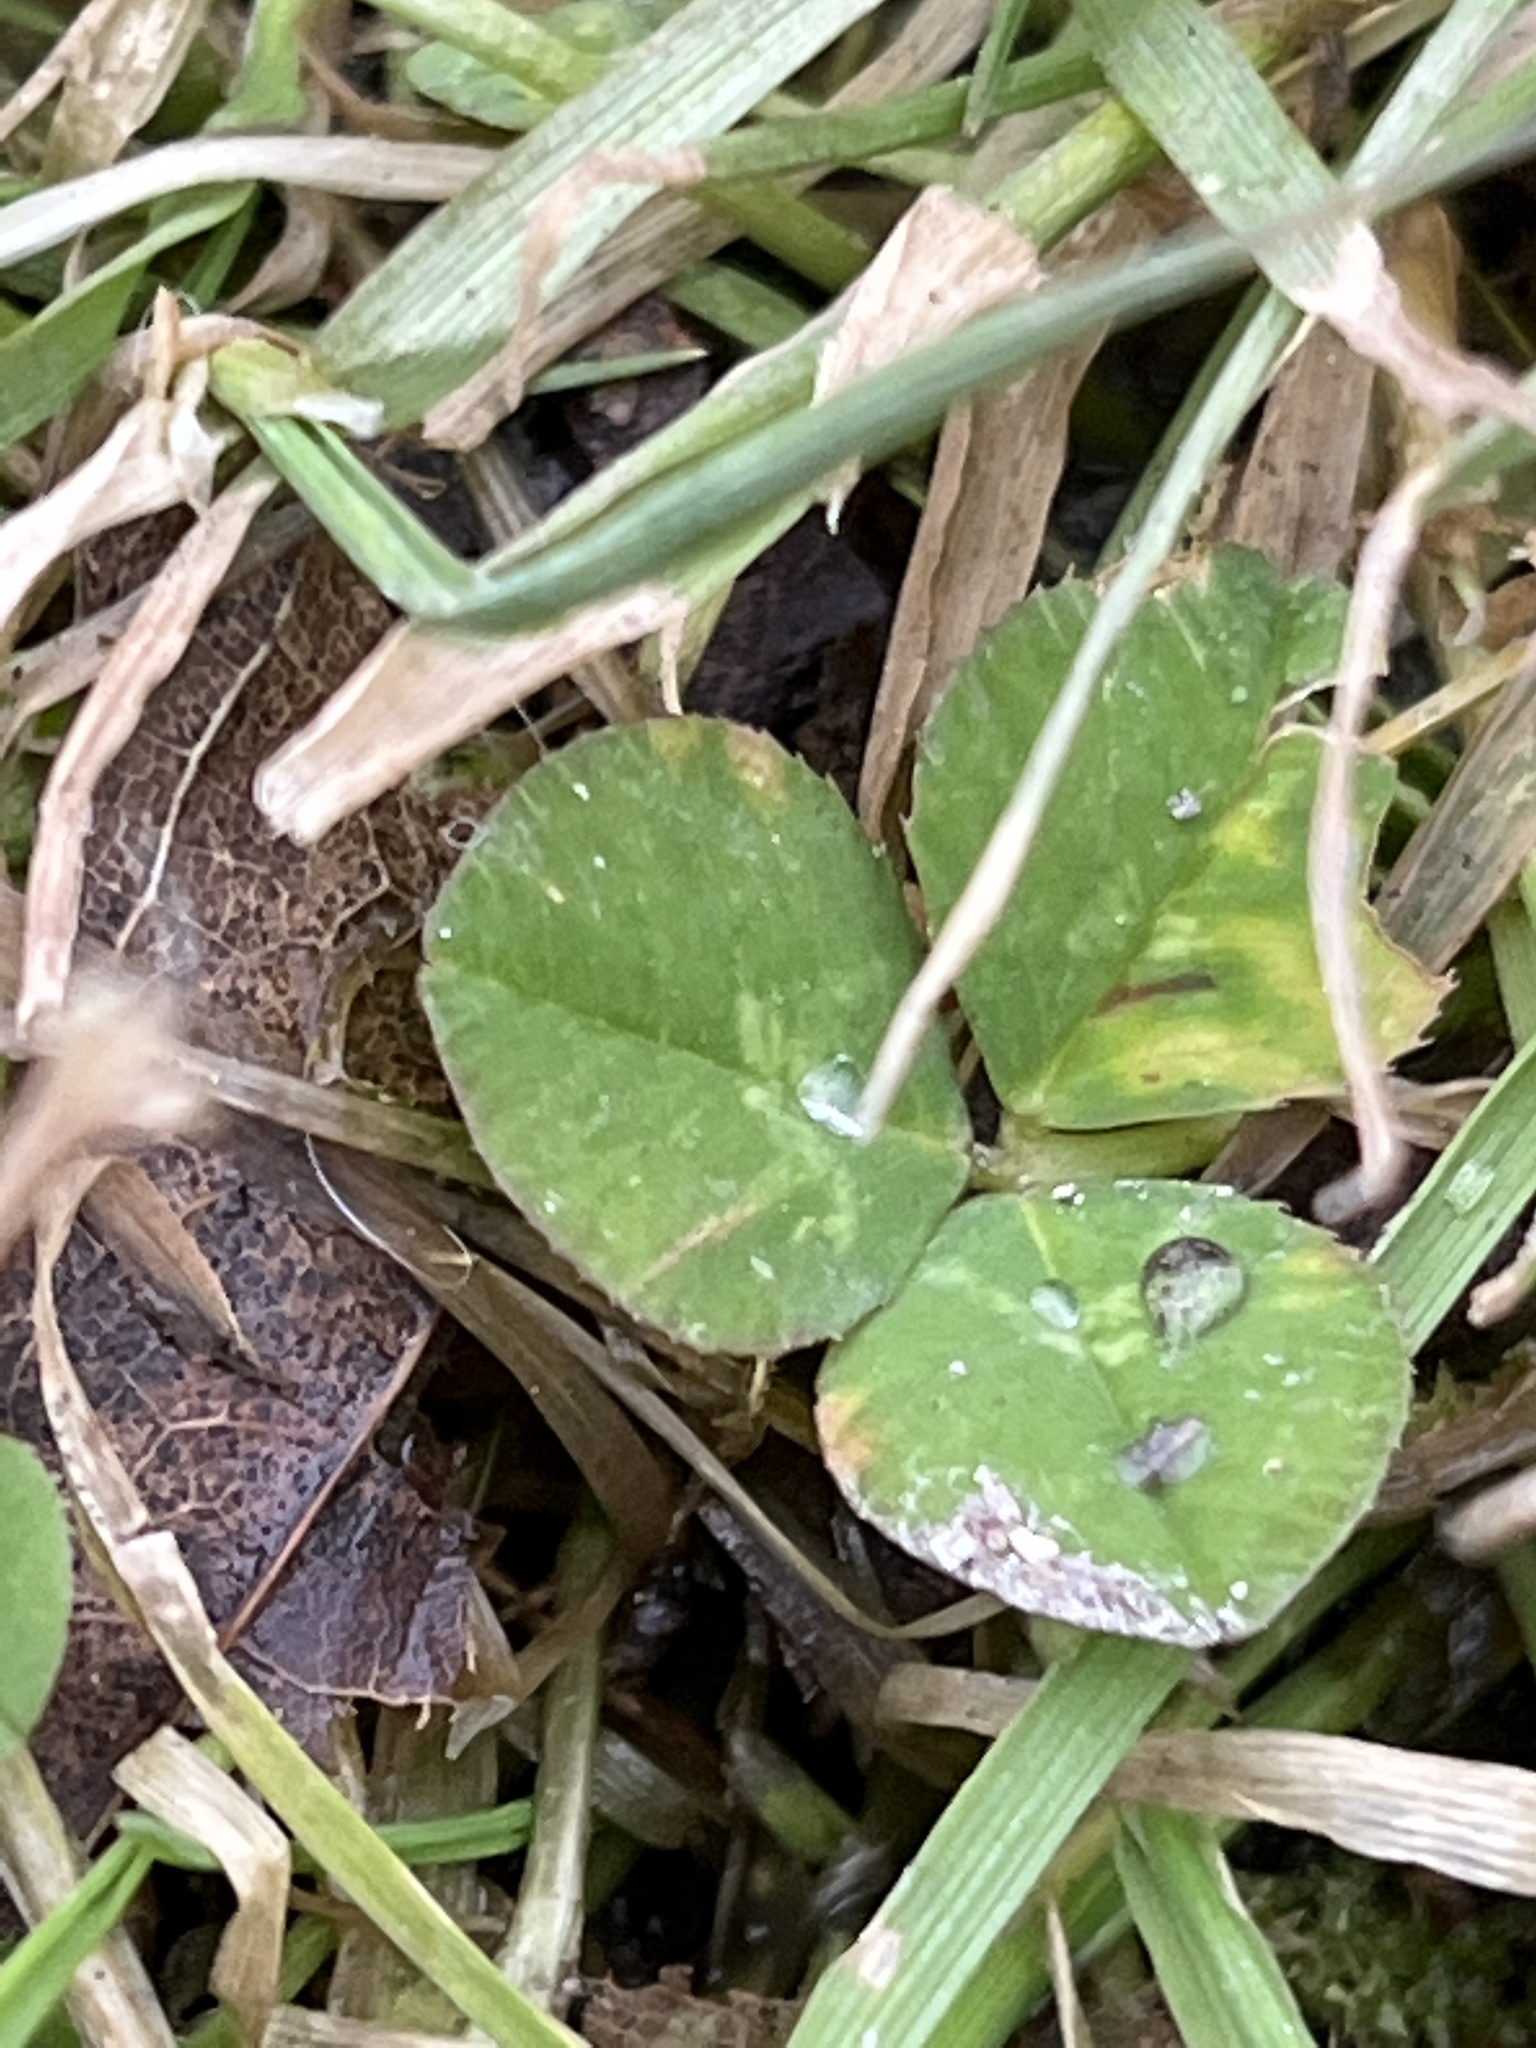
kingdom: Plantae
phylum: Tracheophyta
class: Magnoliopsida
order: Fabales
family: Fabaceae
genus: Trifolium
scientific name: Trifolium repens
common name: White clover
